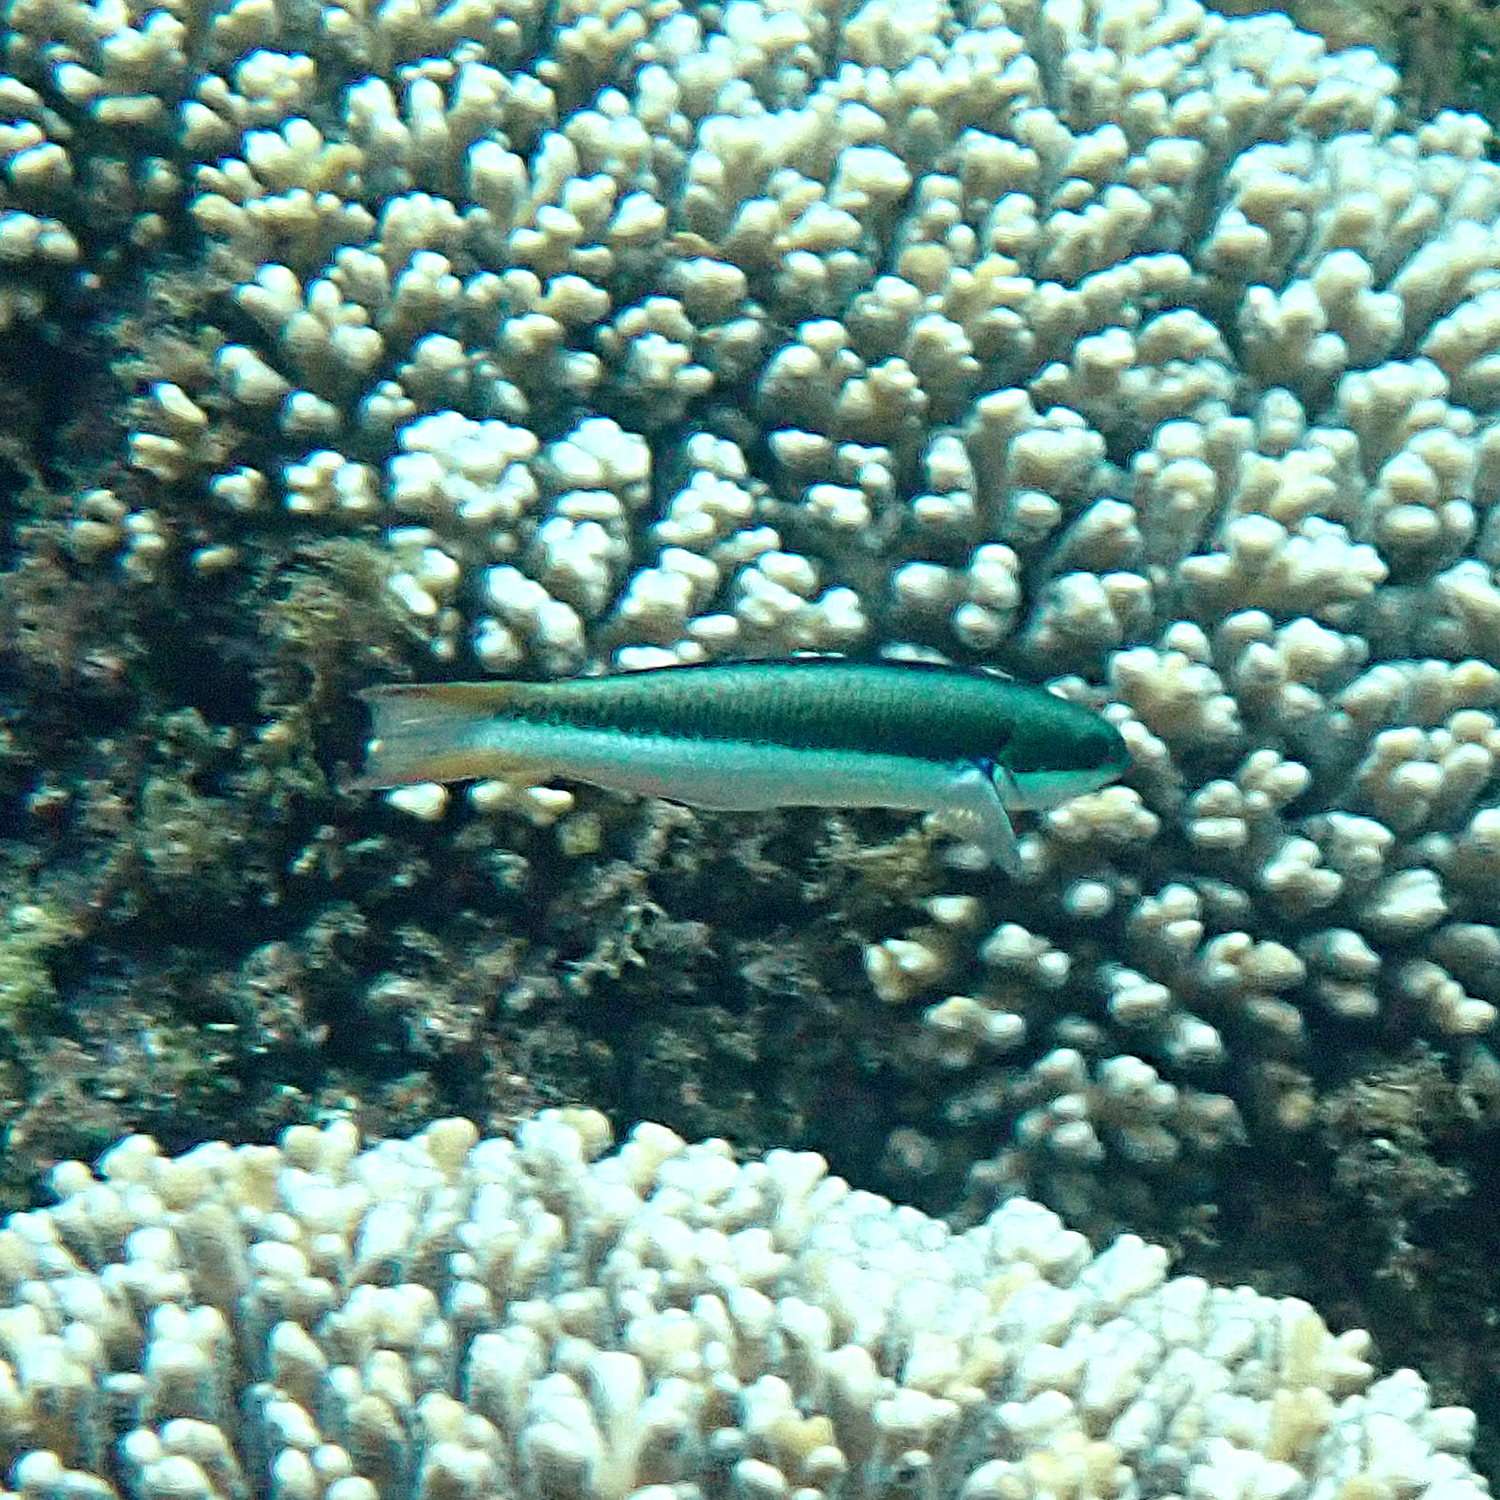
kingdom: Animalia
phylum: Chordata
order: Perciformes
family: Labridae
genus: Thalassoma
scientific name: Thalassoma amblycephalum
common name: Bluehead wrasse
